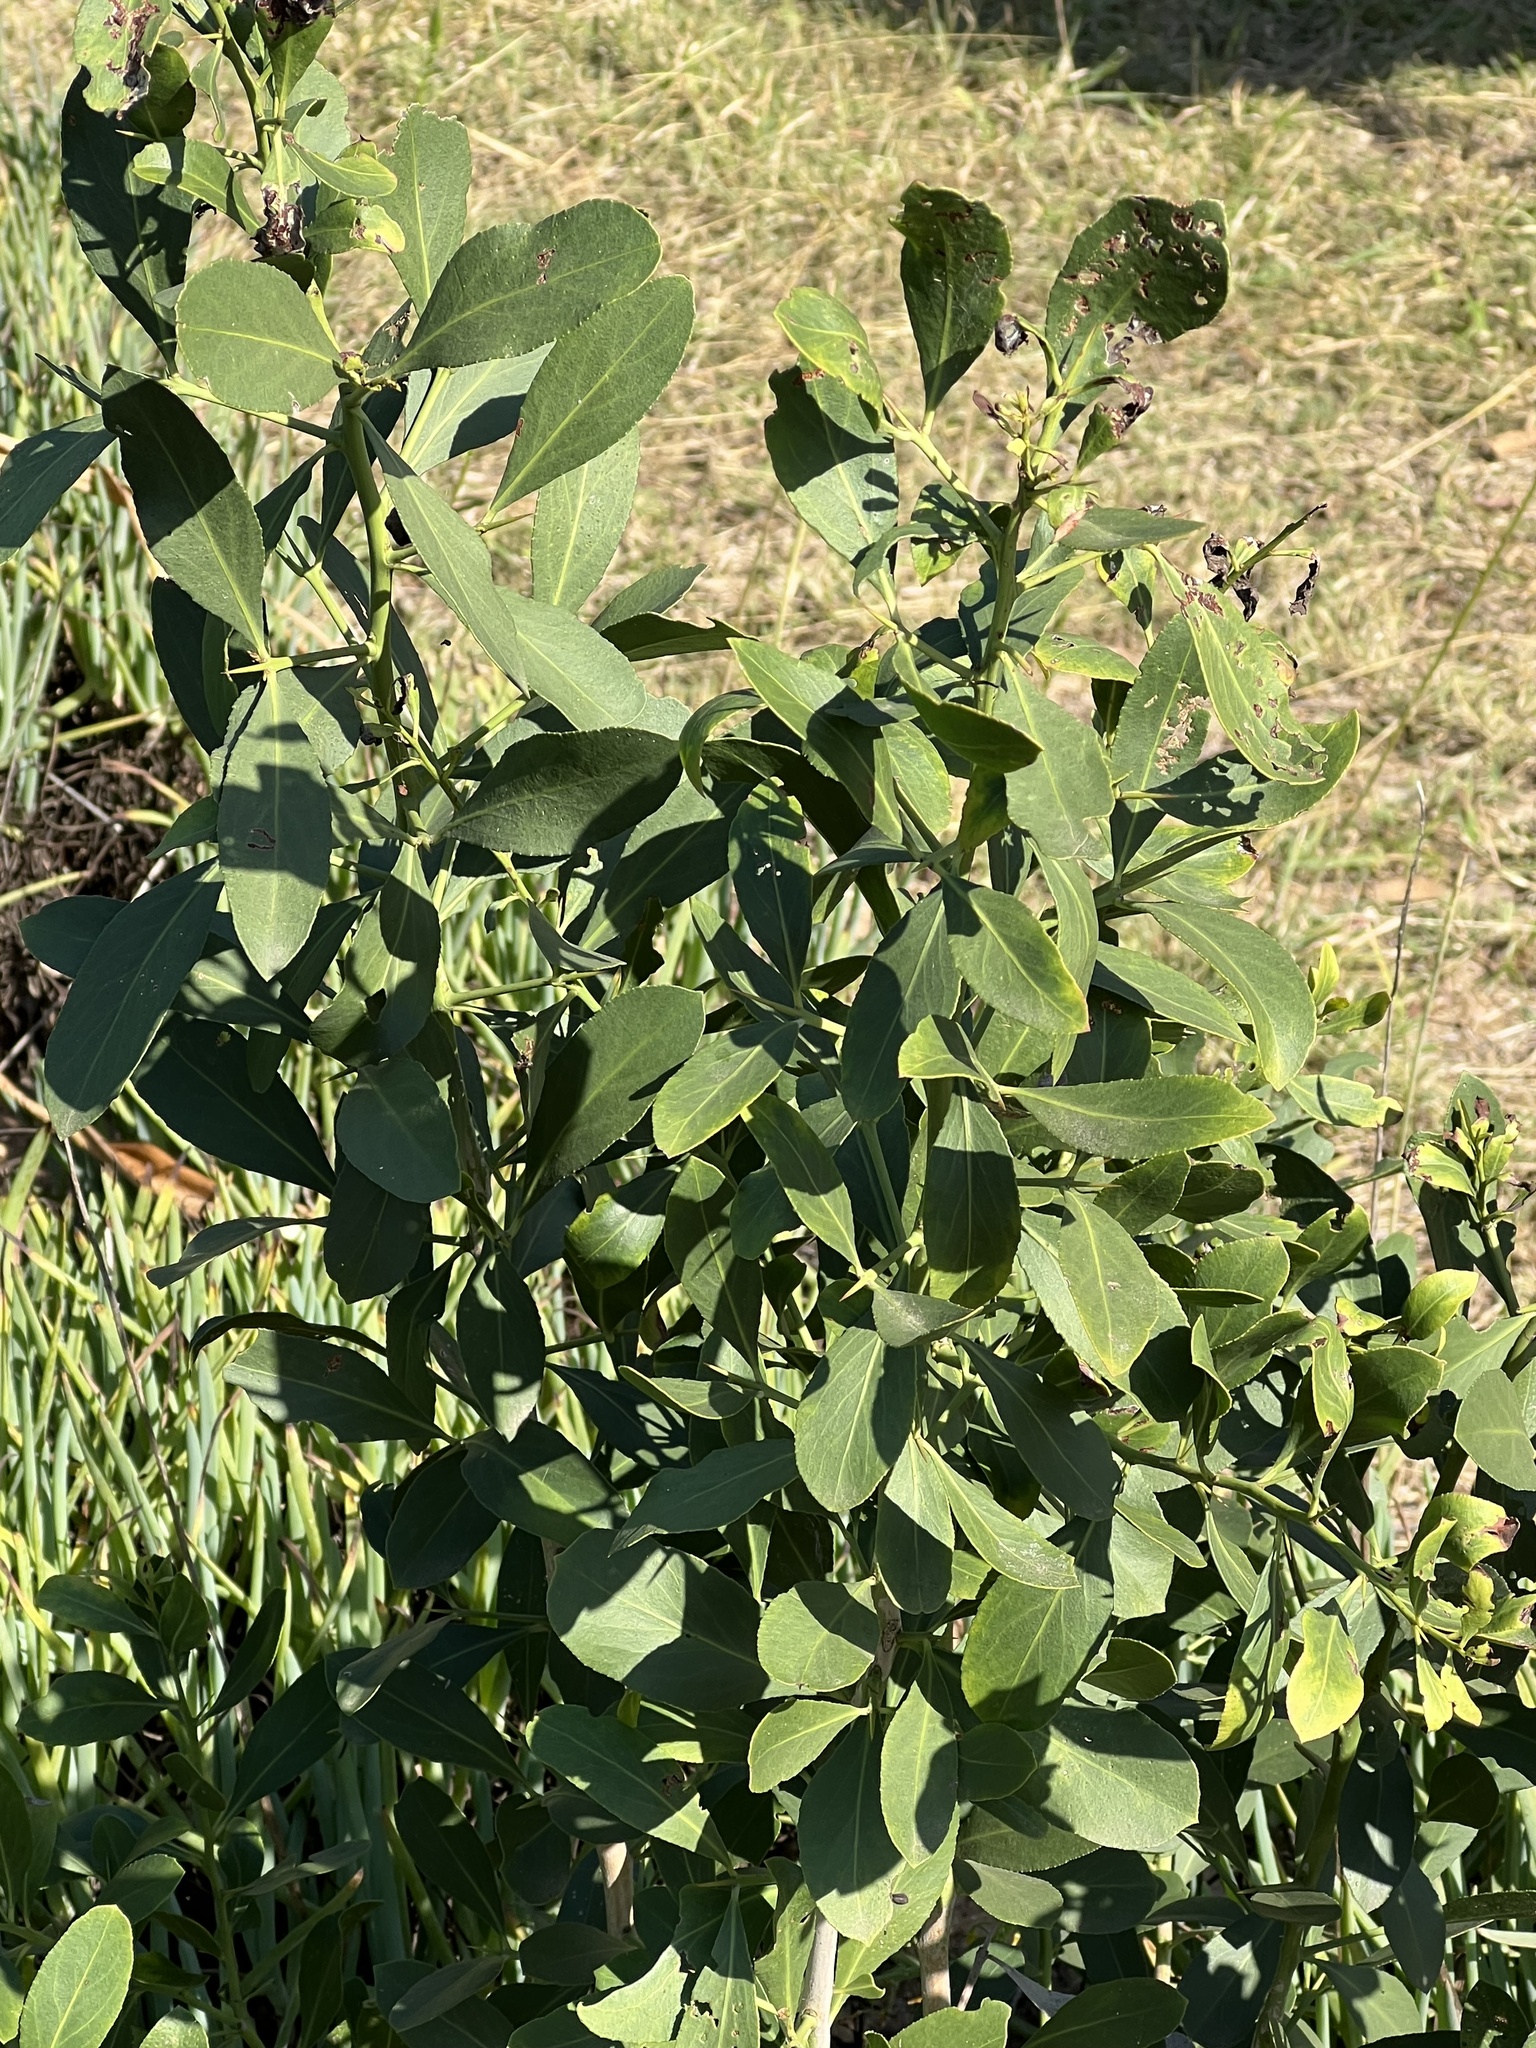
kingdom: Plantae
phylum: Tracheophyta
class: Magnoliopsida
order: Celastrales
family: Celastraceae
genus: Gymnosporia
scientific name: Gymnosporia senegalensis
